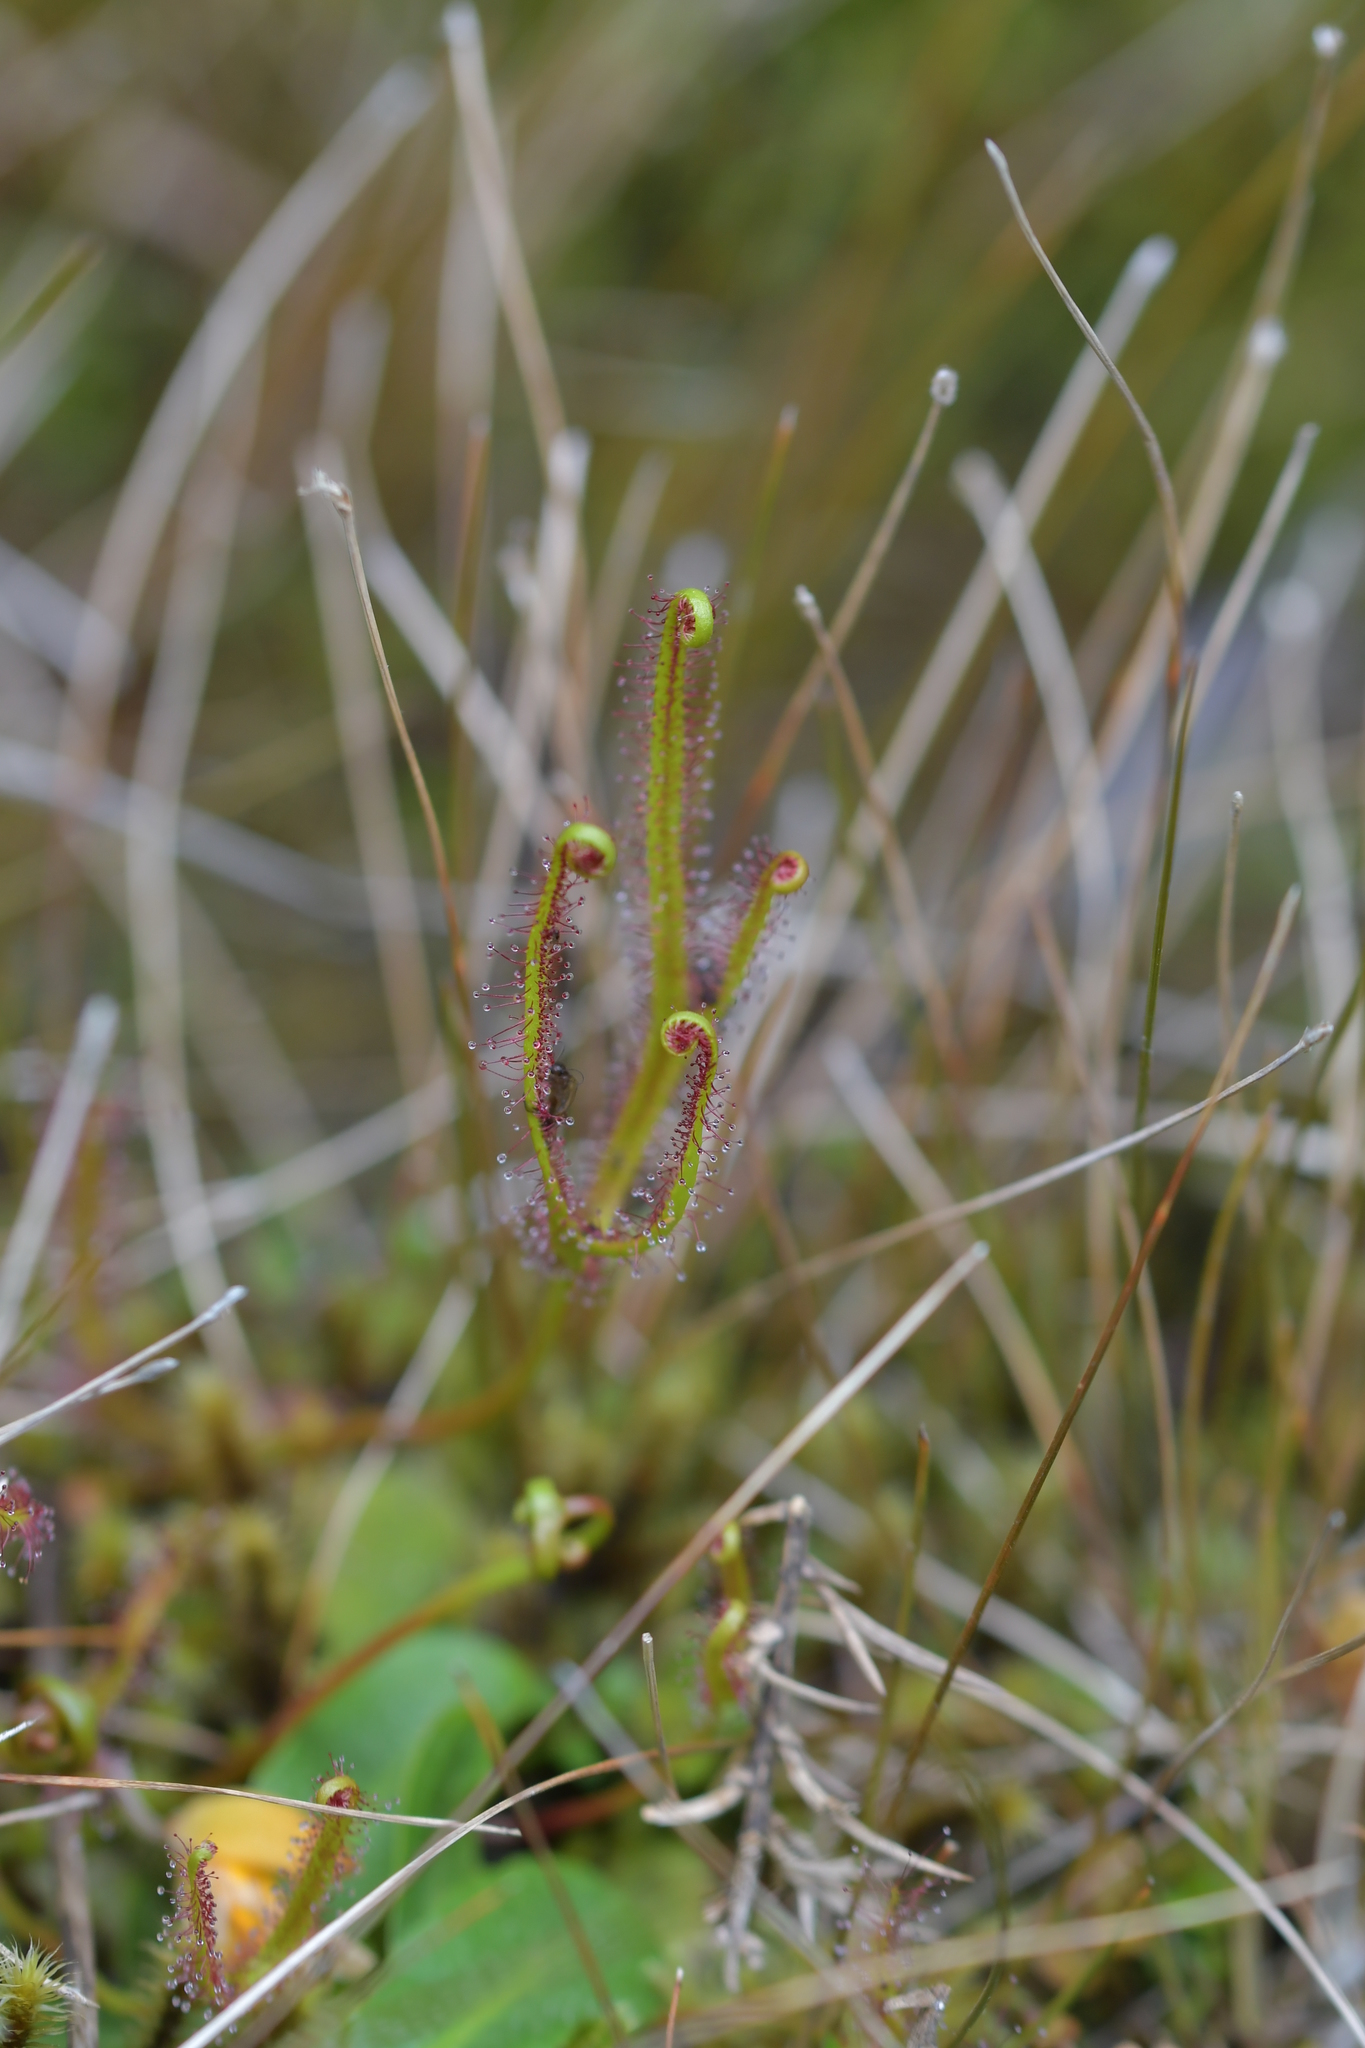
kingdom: Plantae
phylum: Tracheophyta
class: Magnoliopsida
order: Caryophyllales
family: Droseraceae
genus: Drosera
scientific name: Drosera binata
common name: Forked sundew
